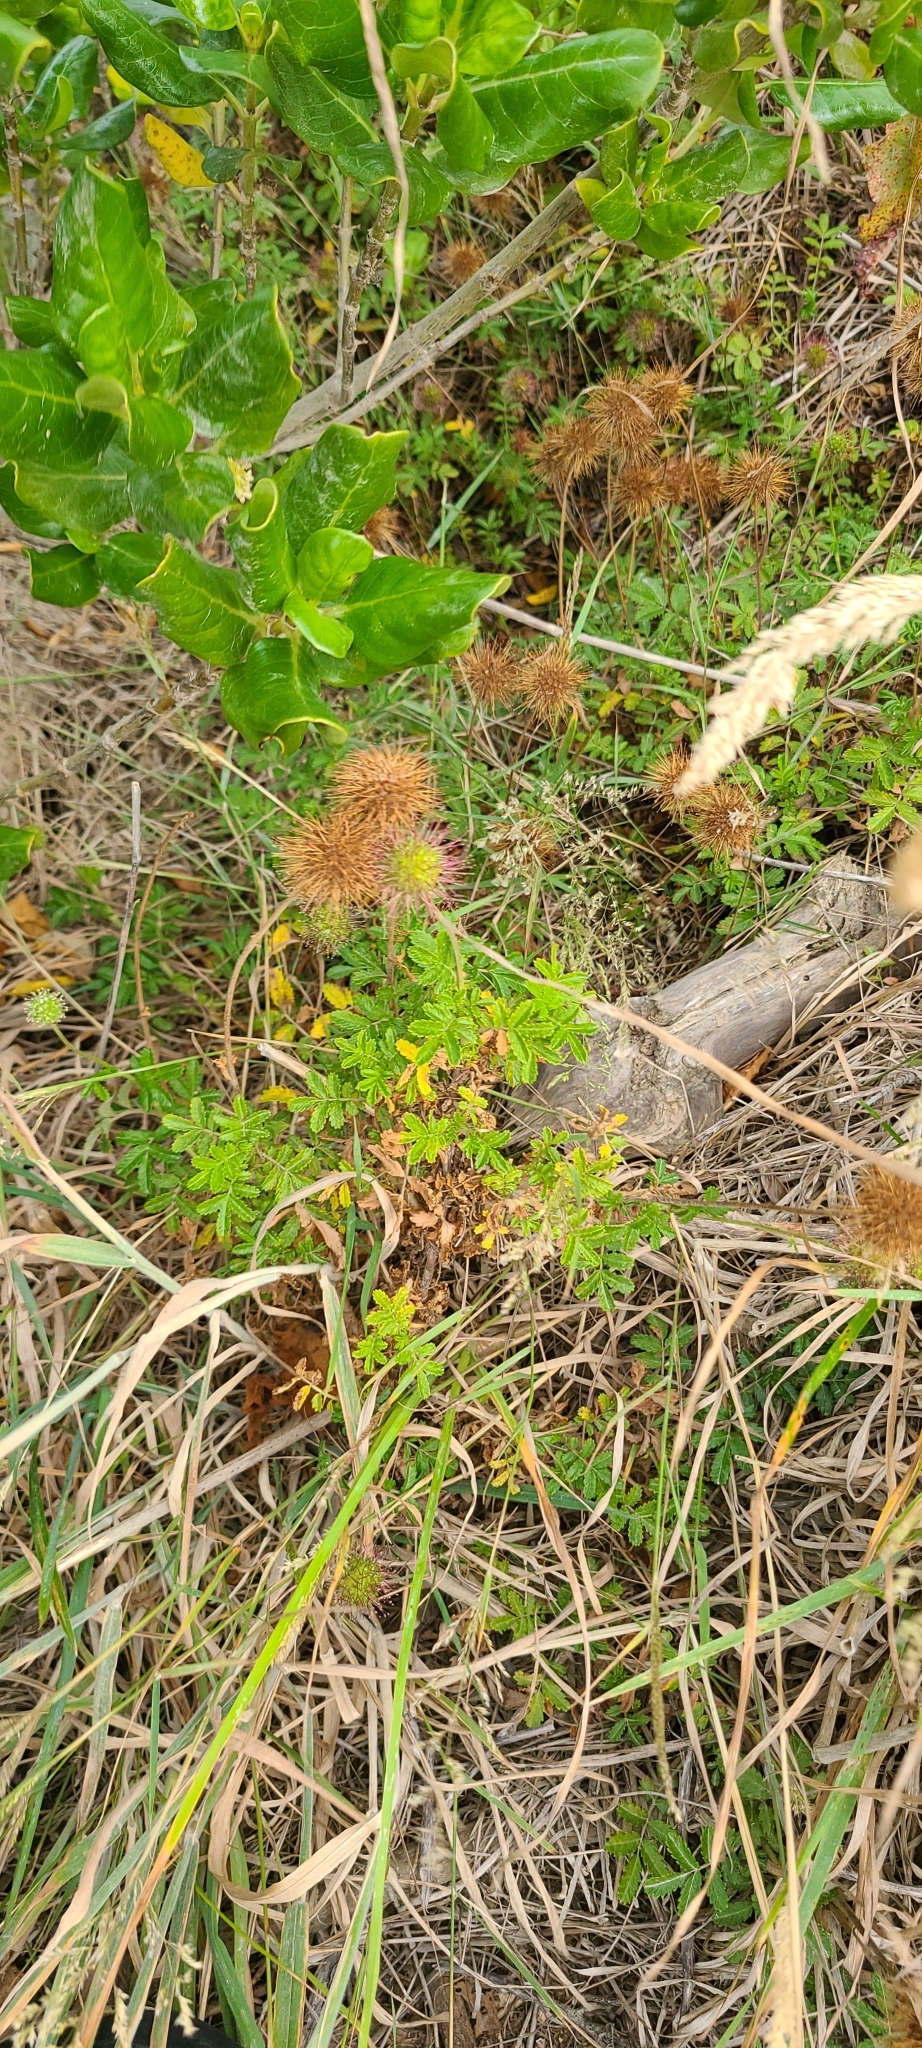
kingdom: Plantae
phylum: Tracheophyta
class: Magnoliopsida
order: Rosales
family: Rosaceae
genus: Acaena
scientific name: Acaena pallida
